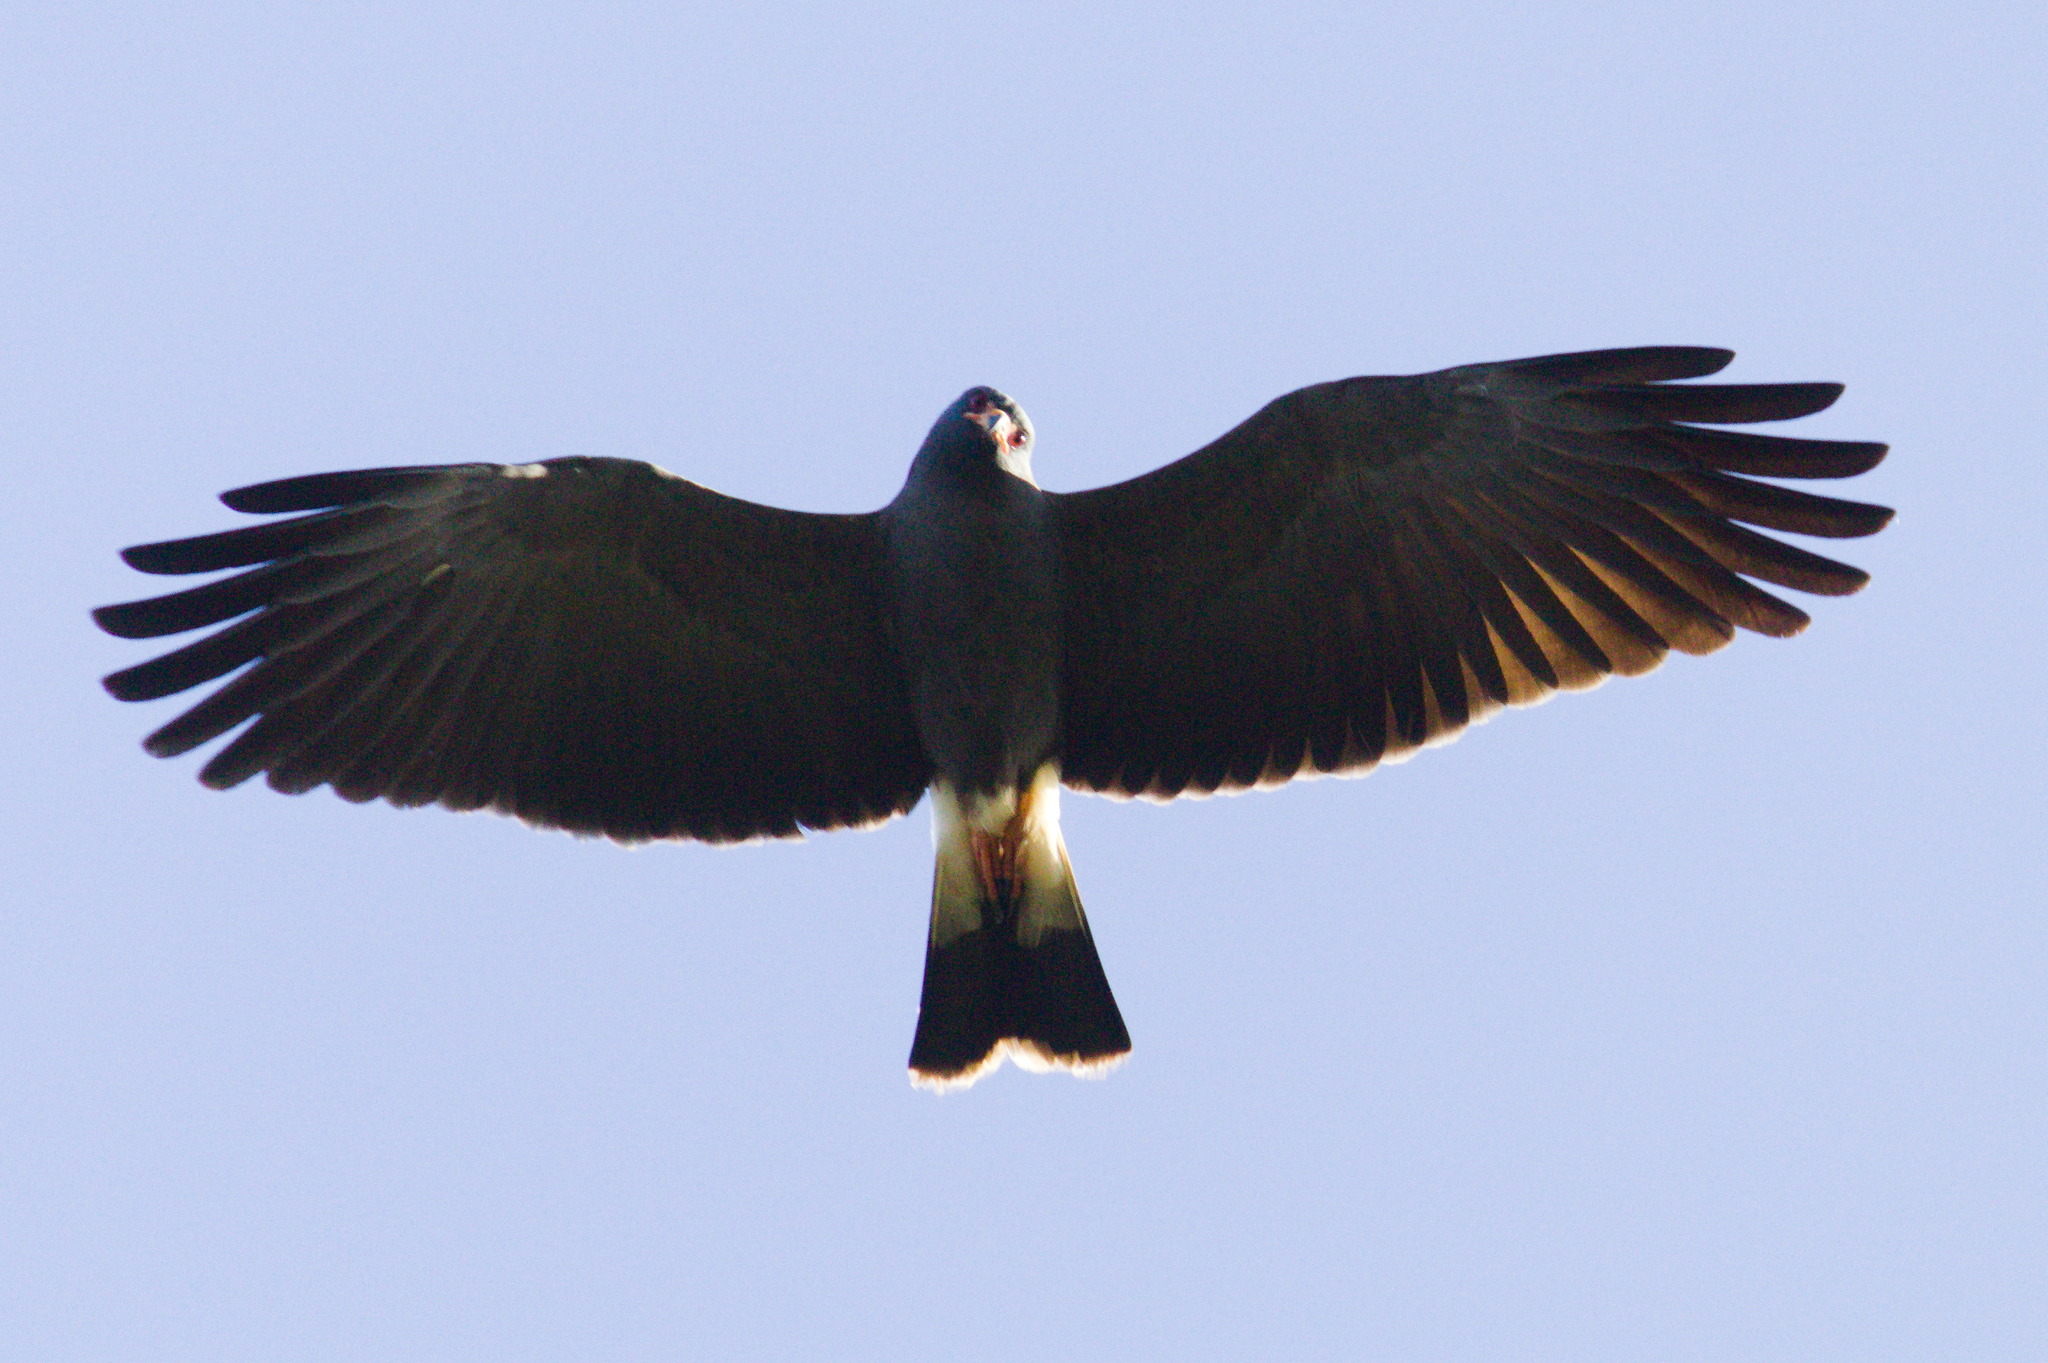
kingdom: Animalia
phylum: Chordata
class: Aves
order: Accipitriformes
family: Accipitridae
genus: Rostrhamus
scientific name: Rostrhamus sociabilis
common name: Snail kite
